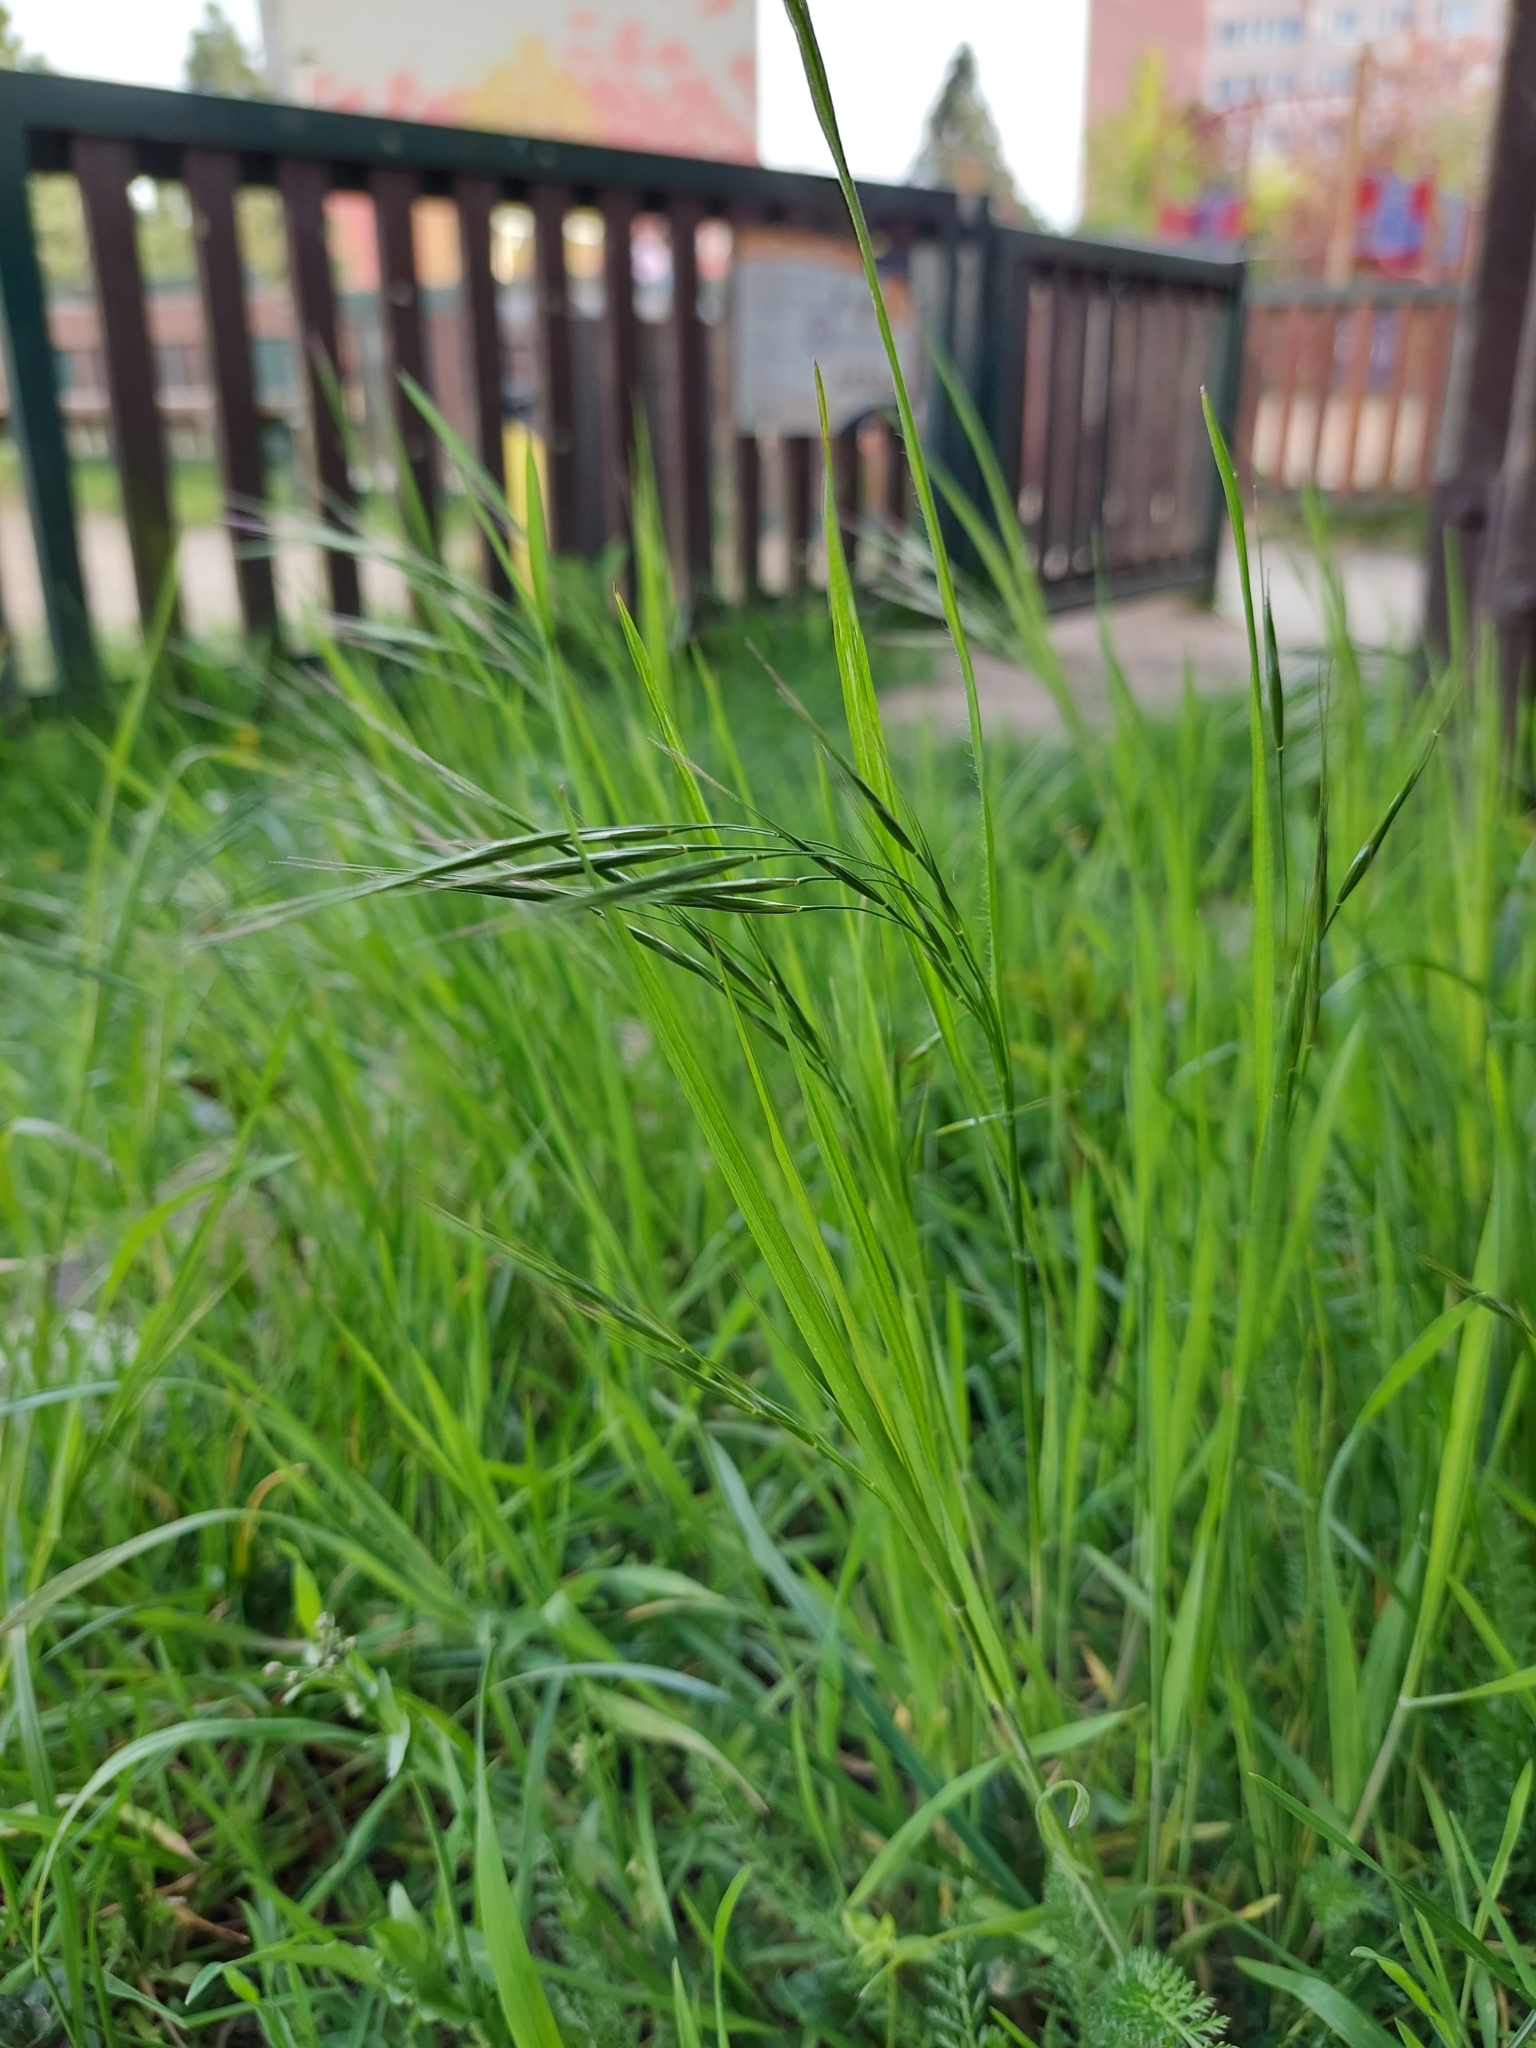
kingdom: Plantae
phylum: Tracheophyta
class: Liliopsida
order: Poales
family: Poaceae
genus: Bromus
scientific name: Bromus sterilis
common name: Poverty brome
